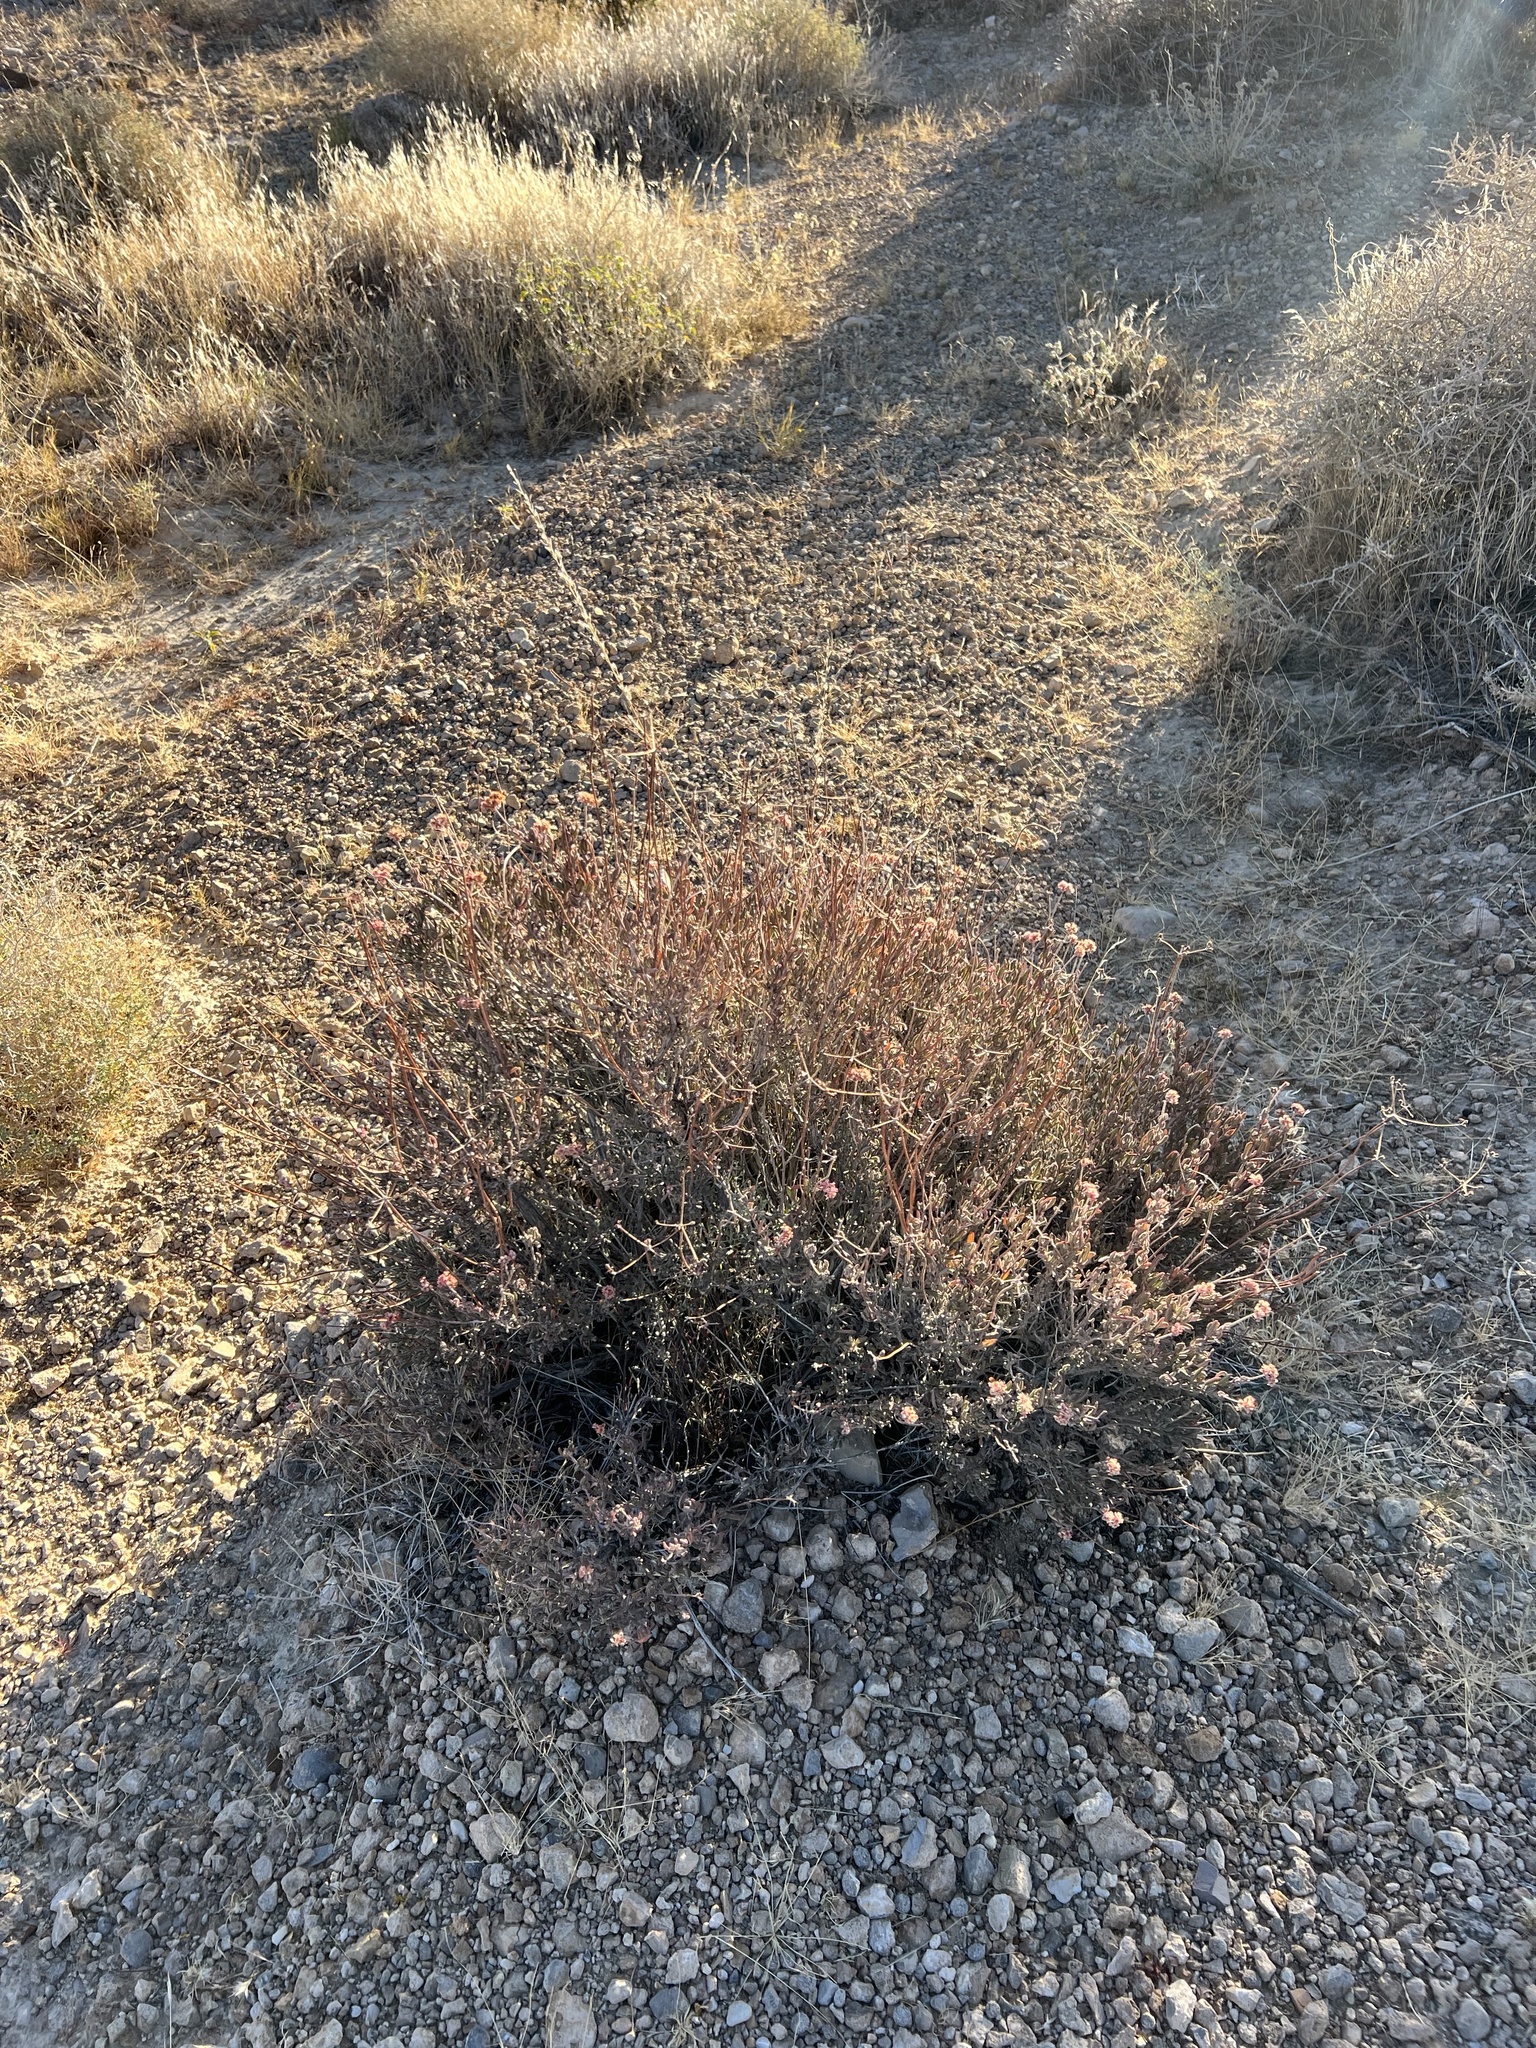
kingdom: Plantae
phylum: Tracheophyta
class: Magnoliopsida
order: Caryophyllales
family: Polygonaceae
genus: Eriogonum
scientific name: Eriogonum fasciculatum
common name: California wild buckwheat
